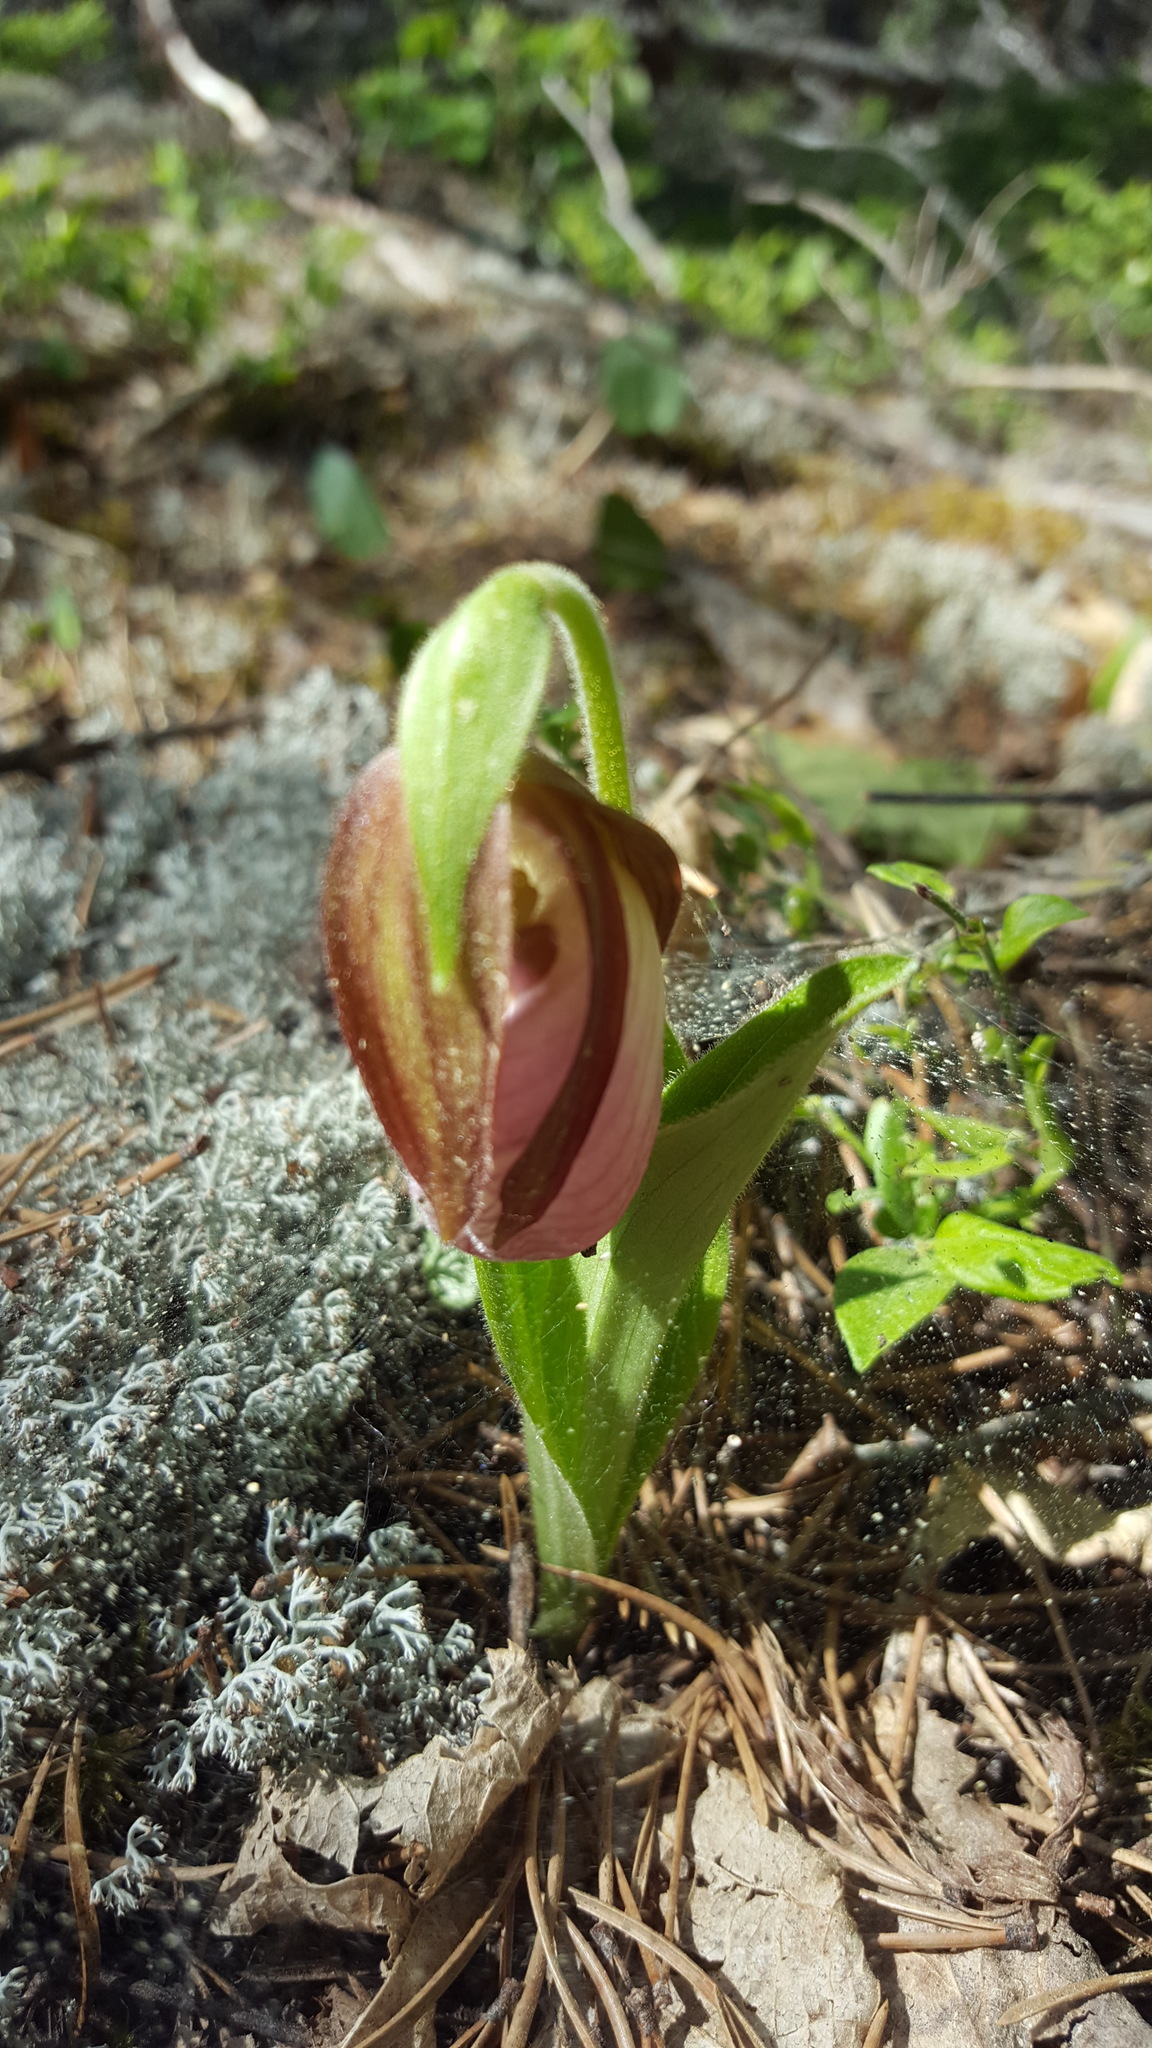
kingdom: Plantae
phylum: Tracheophyta
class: Liliopsida
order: Asparagales
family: Orchidaceae
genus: Cypripedium
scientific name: Cypripedium acaule
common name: Pink lady's-slipper
